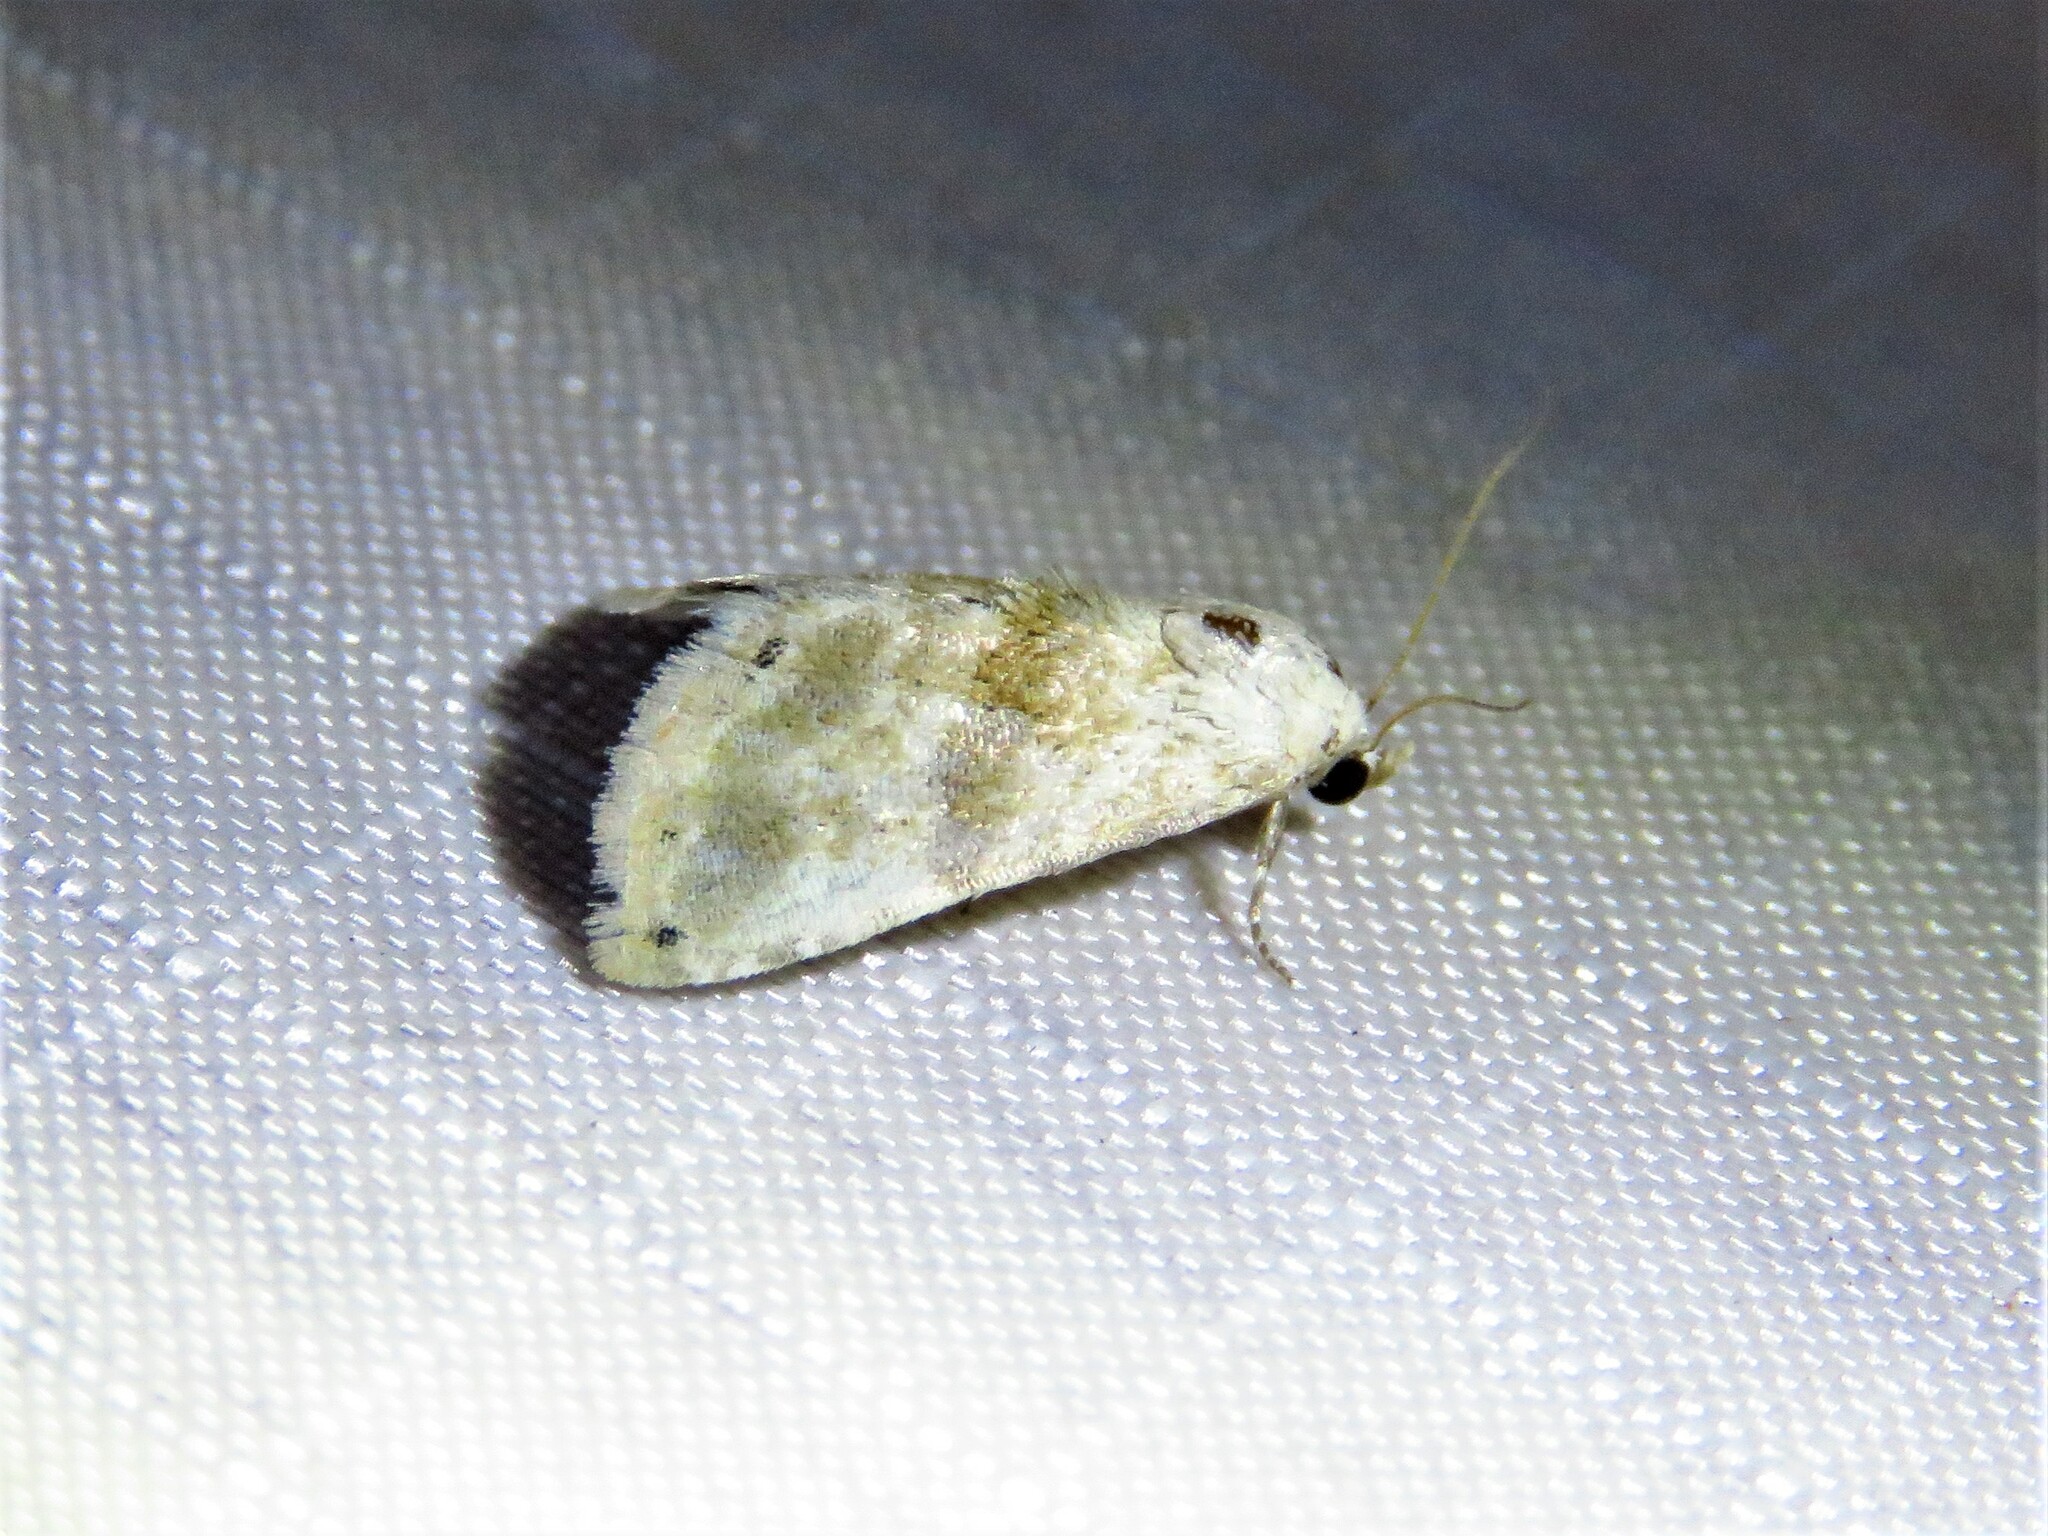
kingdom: Animalia
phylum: Arthropoda
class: Insecta
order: Lepidoptera
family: Noctuidae
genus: Eublemma
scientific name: Eublemma minima
